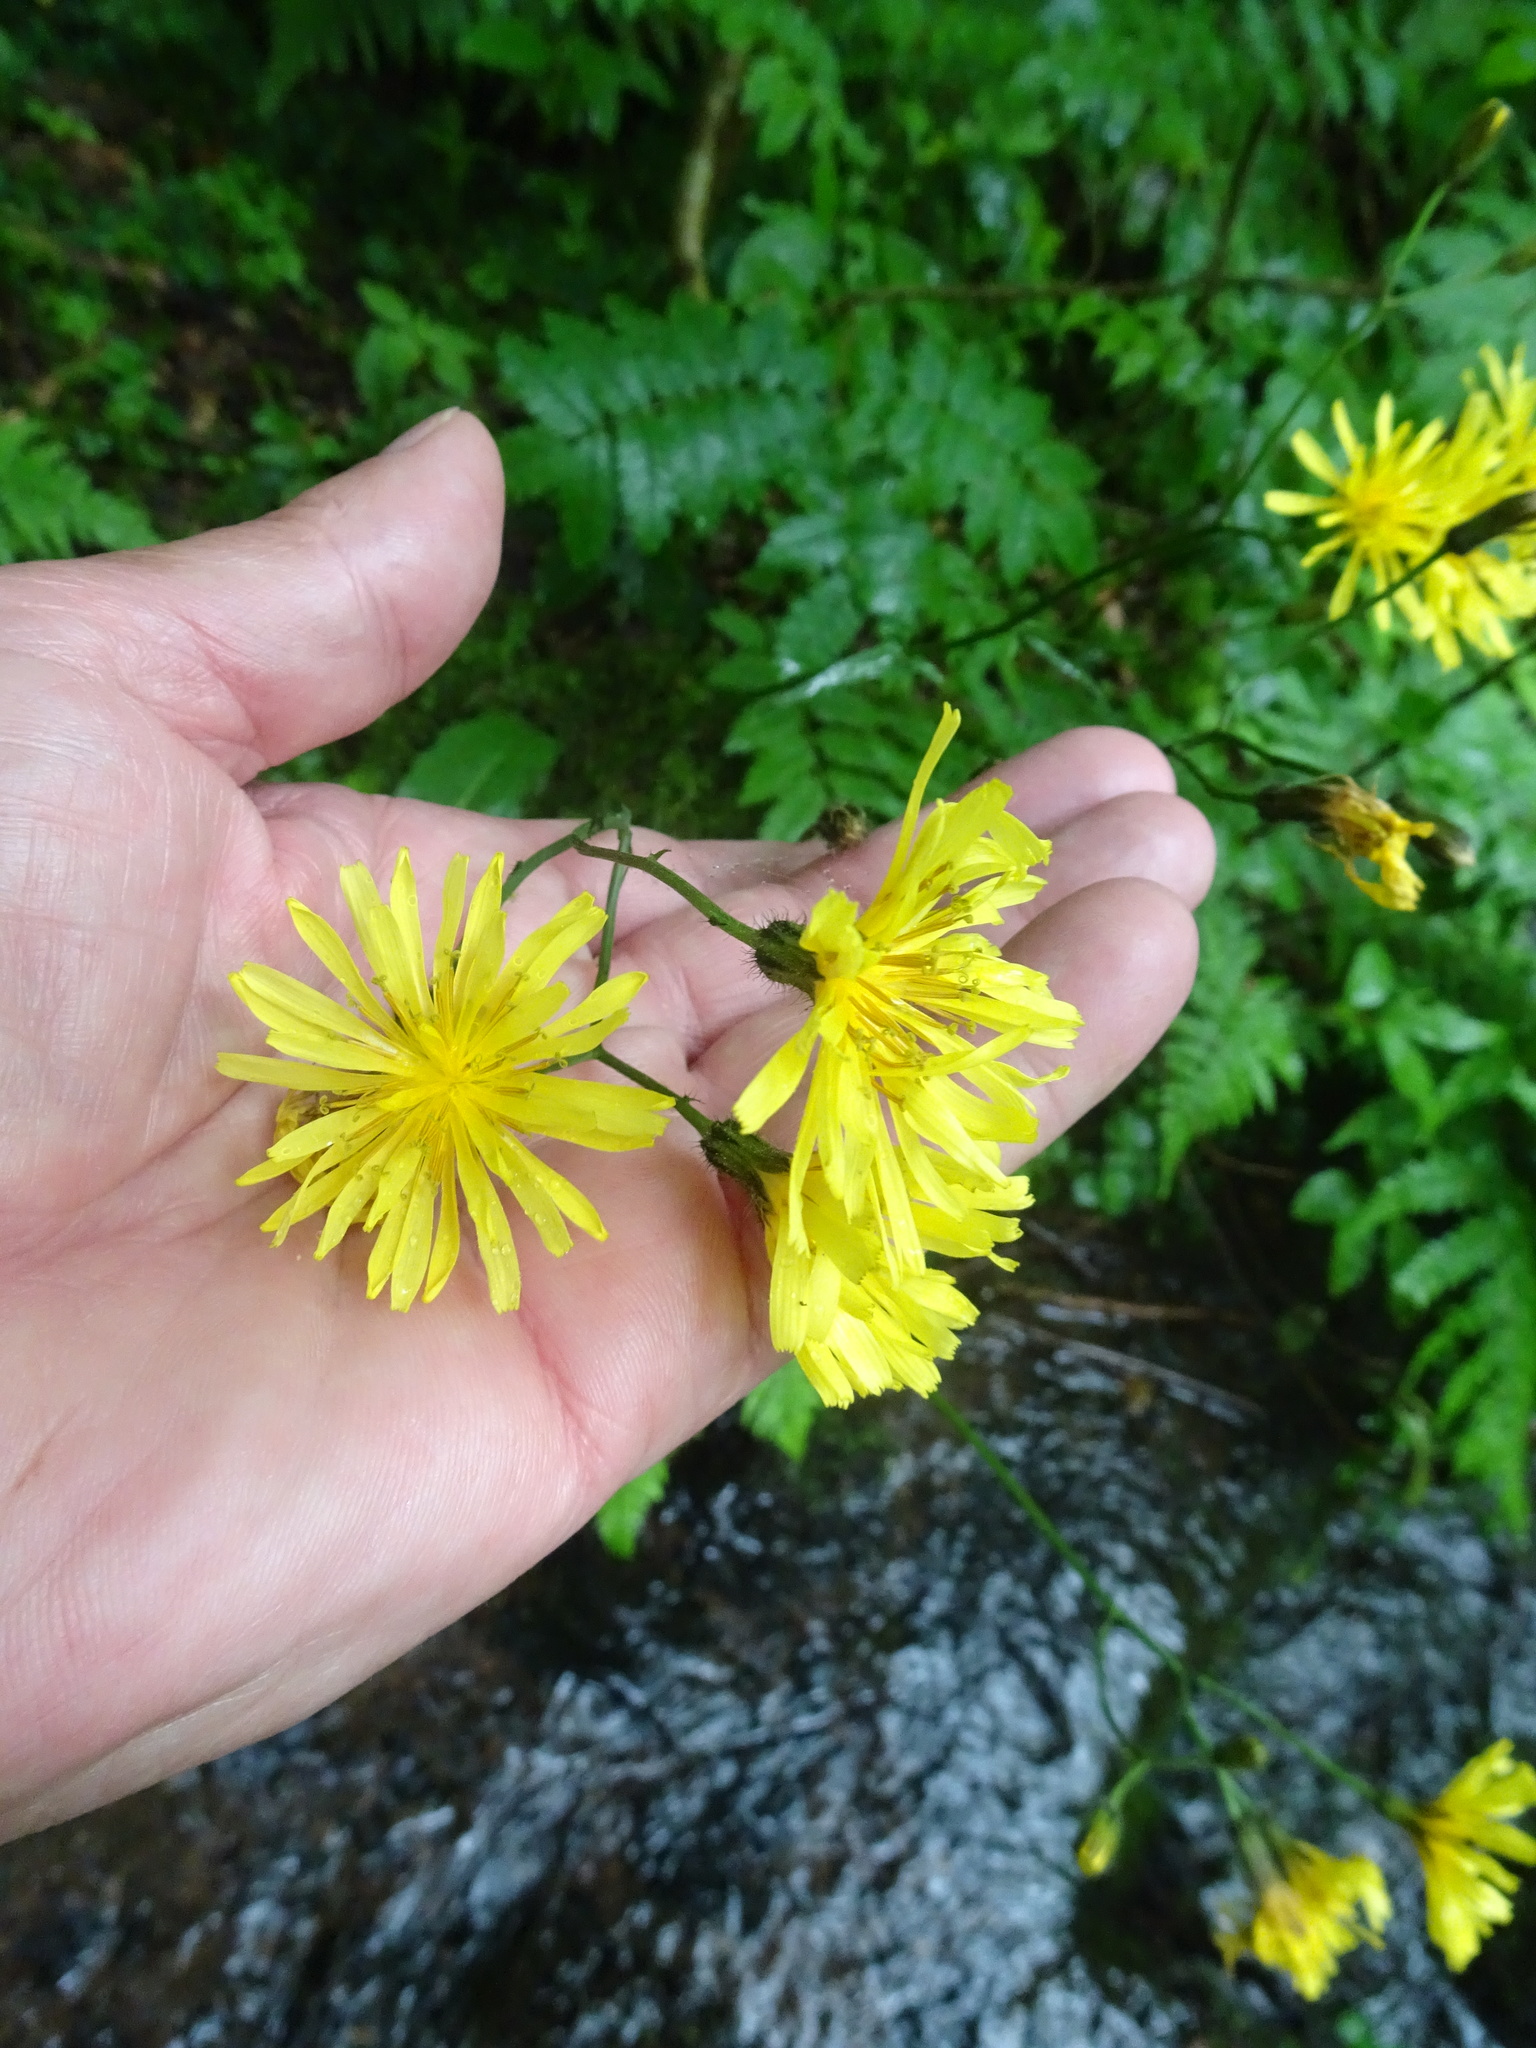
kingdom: Plantae
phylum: Tracheophyta
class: Magnoliopsida
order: Asterales
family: Asteraceae
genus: Crepis
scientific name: Crepis paludosa
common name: Marsh hawk's-beard
